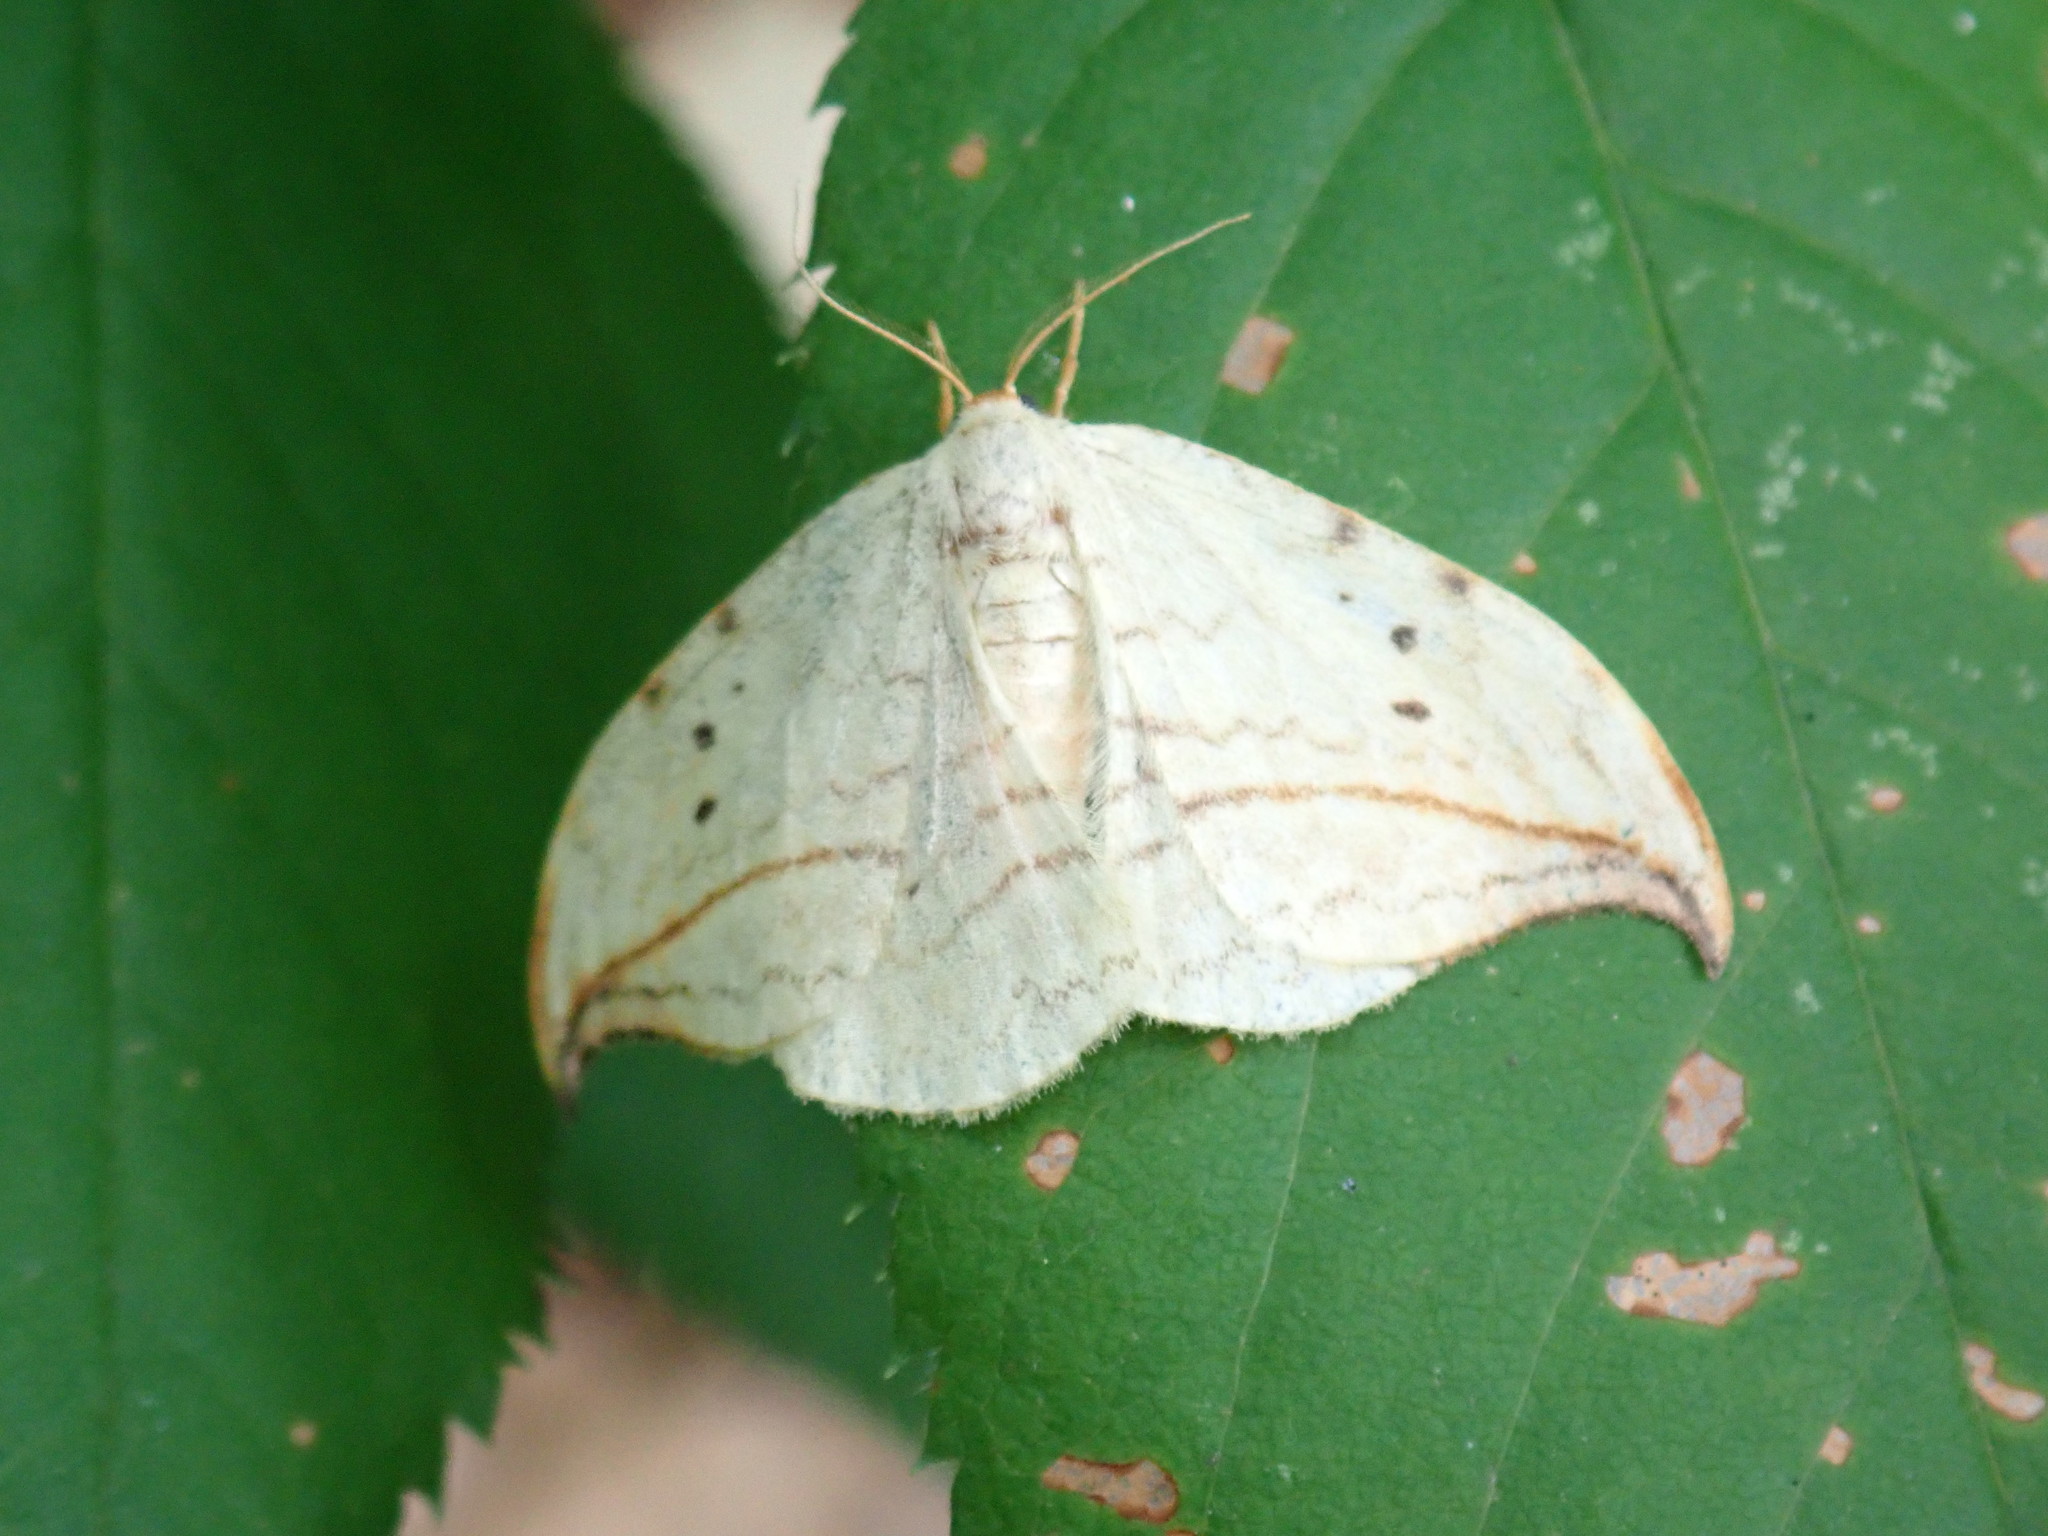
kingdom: Animalia
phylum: Arthropoda
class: Insecta
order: Lepidoptera
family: Drepanidae
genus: Drepana
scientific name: Drepana arcuata
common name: Arched hooktip moth
